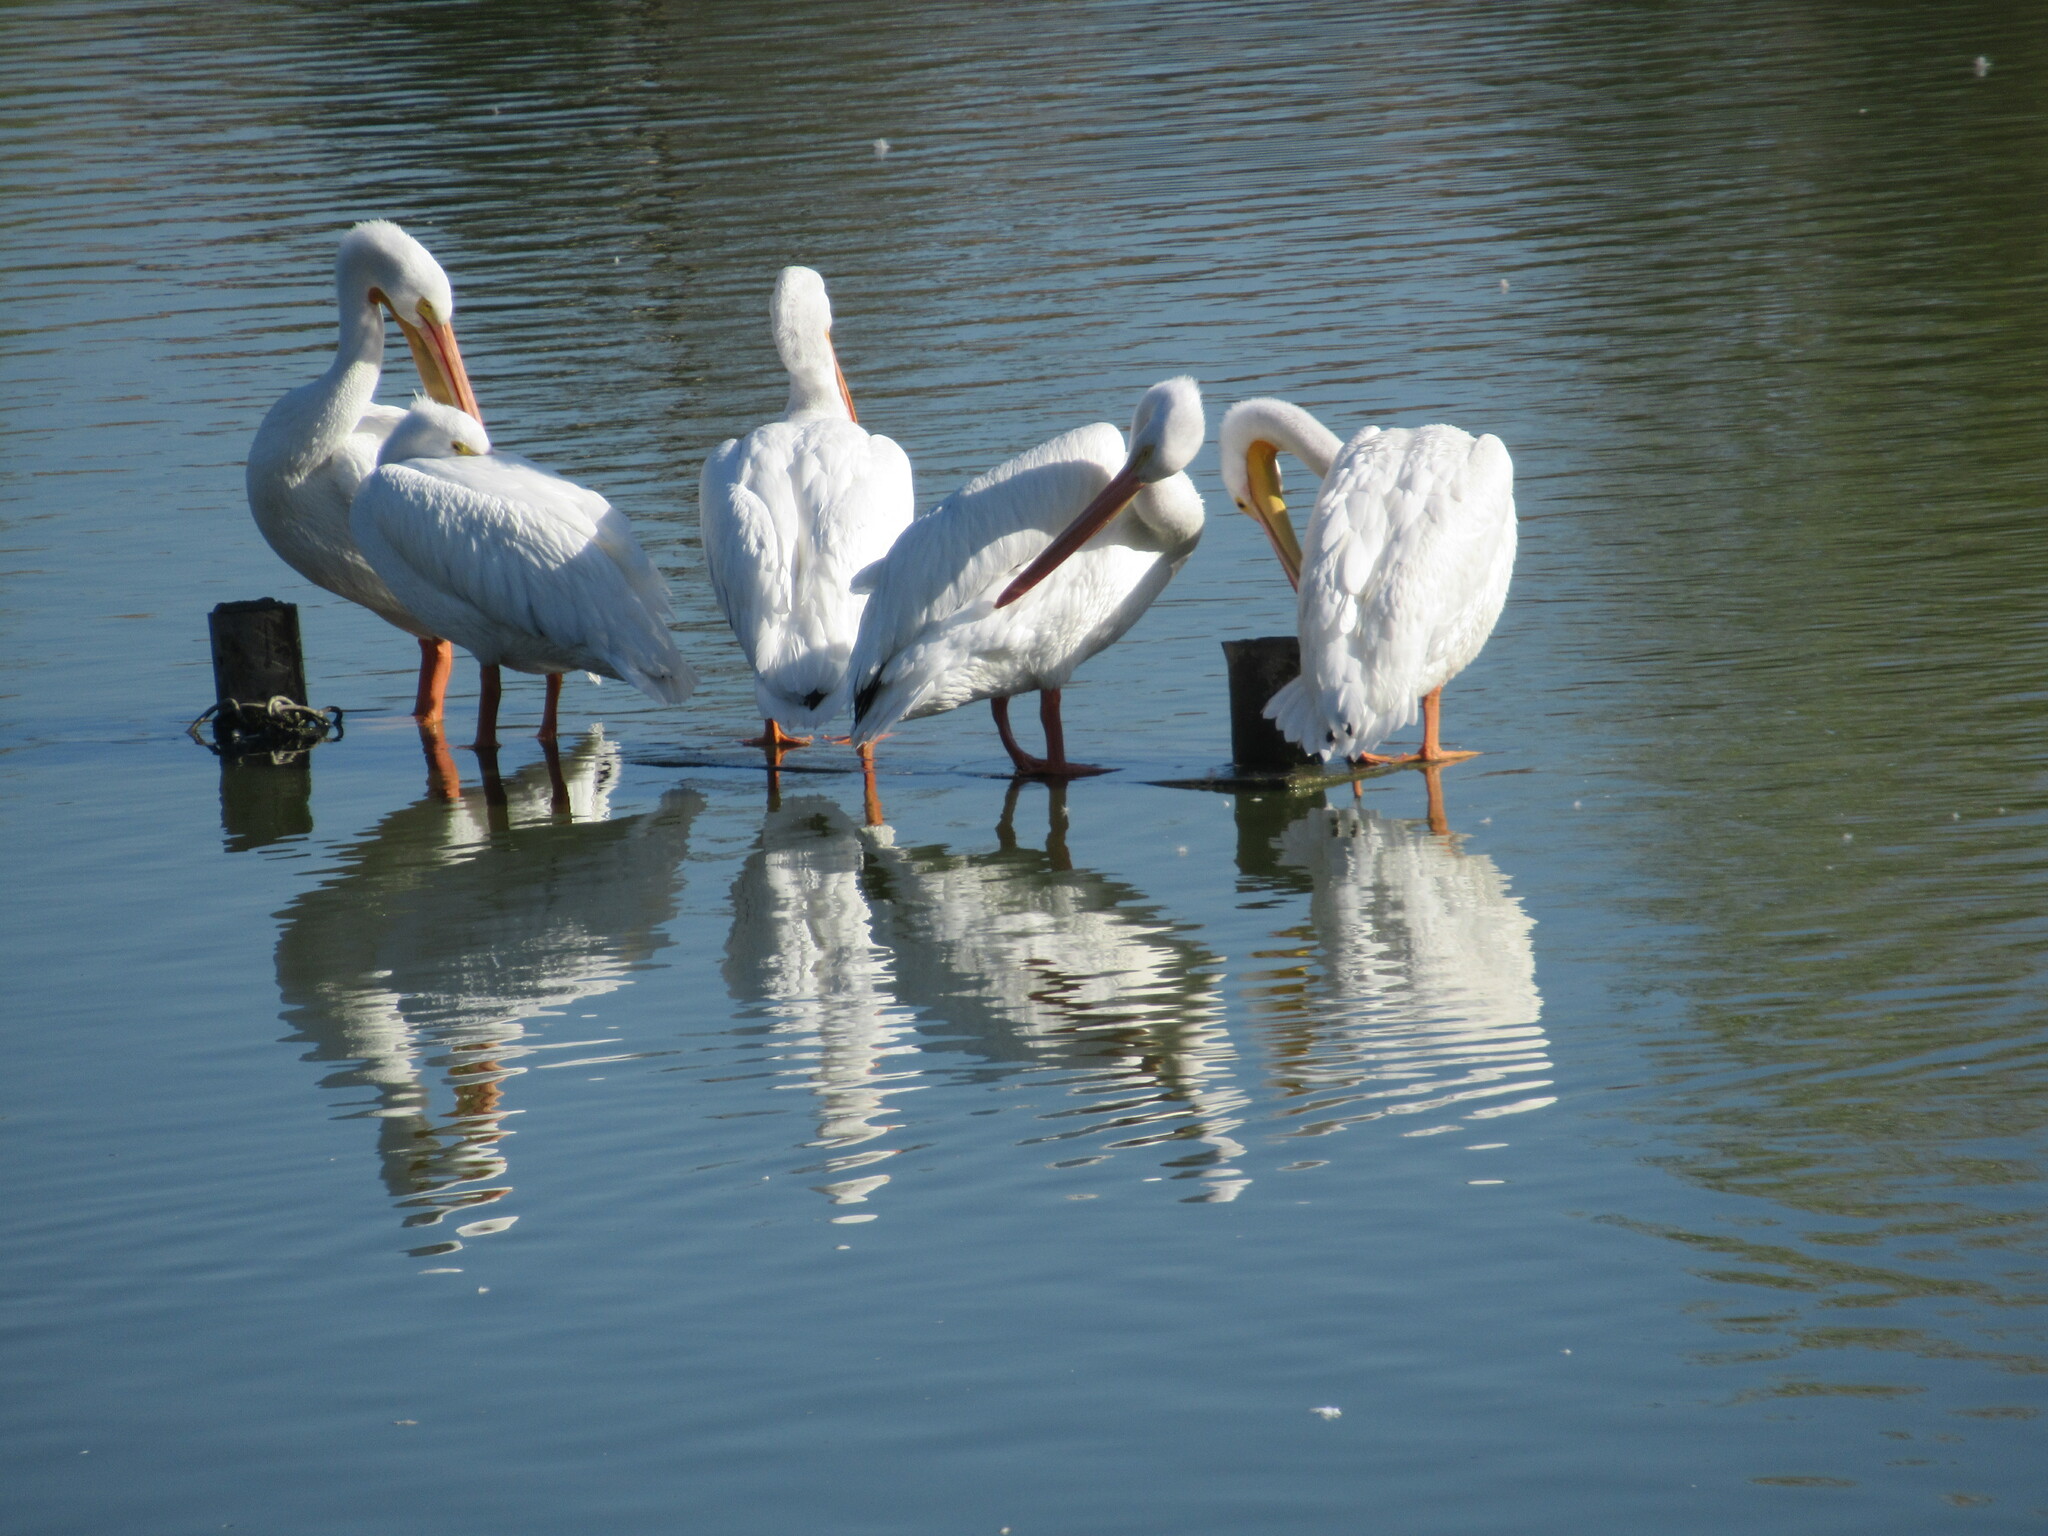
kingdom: Animalia
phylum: Chordata
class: Aves
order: Pelecaniformes
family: Pelecanidae
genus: Pelecanus
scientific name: Pelecanus erythrorhynchos
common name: American white pelican
